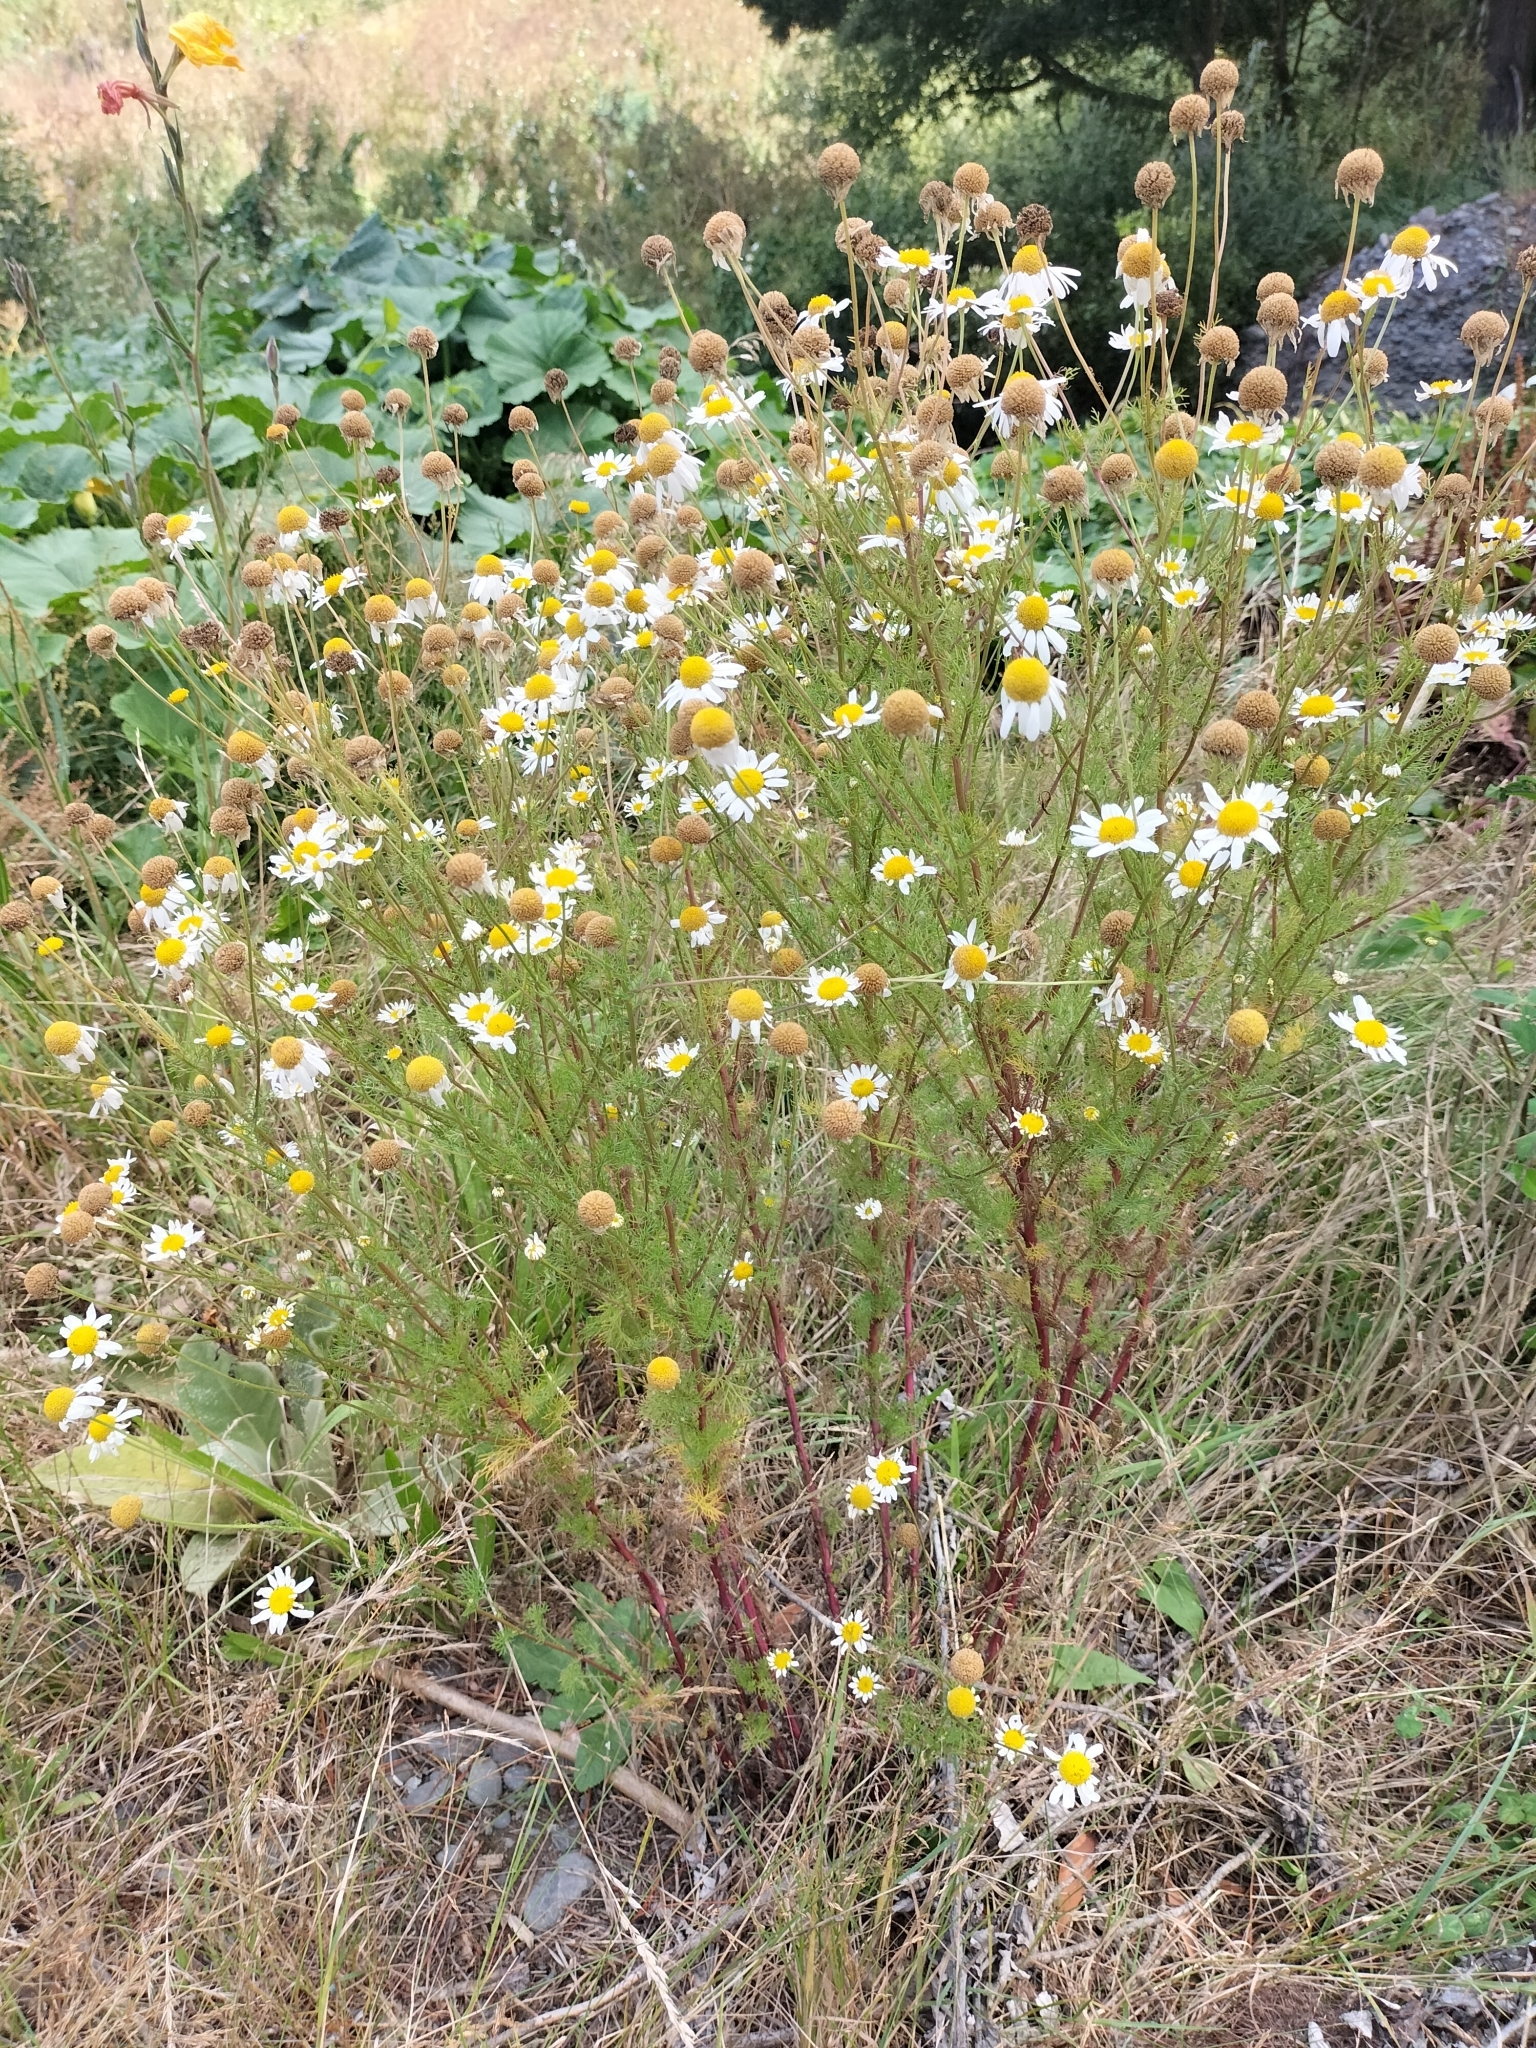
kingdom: Plantae
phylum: Tracheophyta
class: Magnoliopsida
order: Asterales
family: Asteraceae
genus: Tripleurospermum
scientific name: Tripleurospermum inodorum
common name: Scentless mayweed
